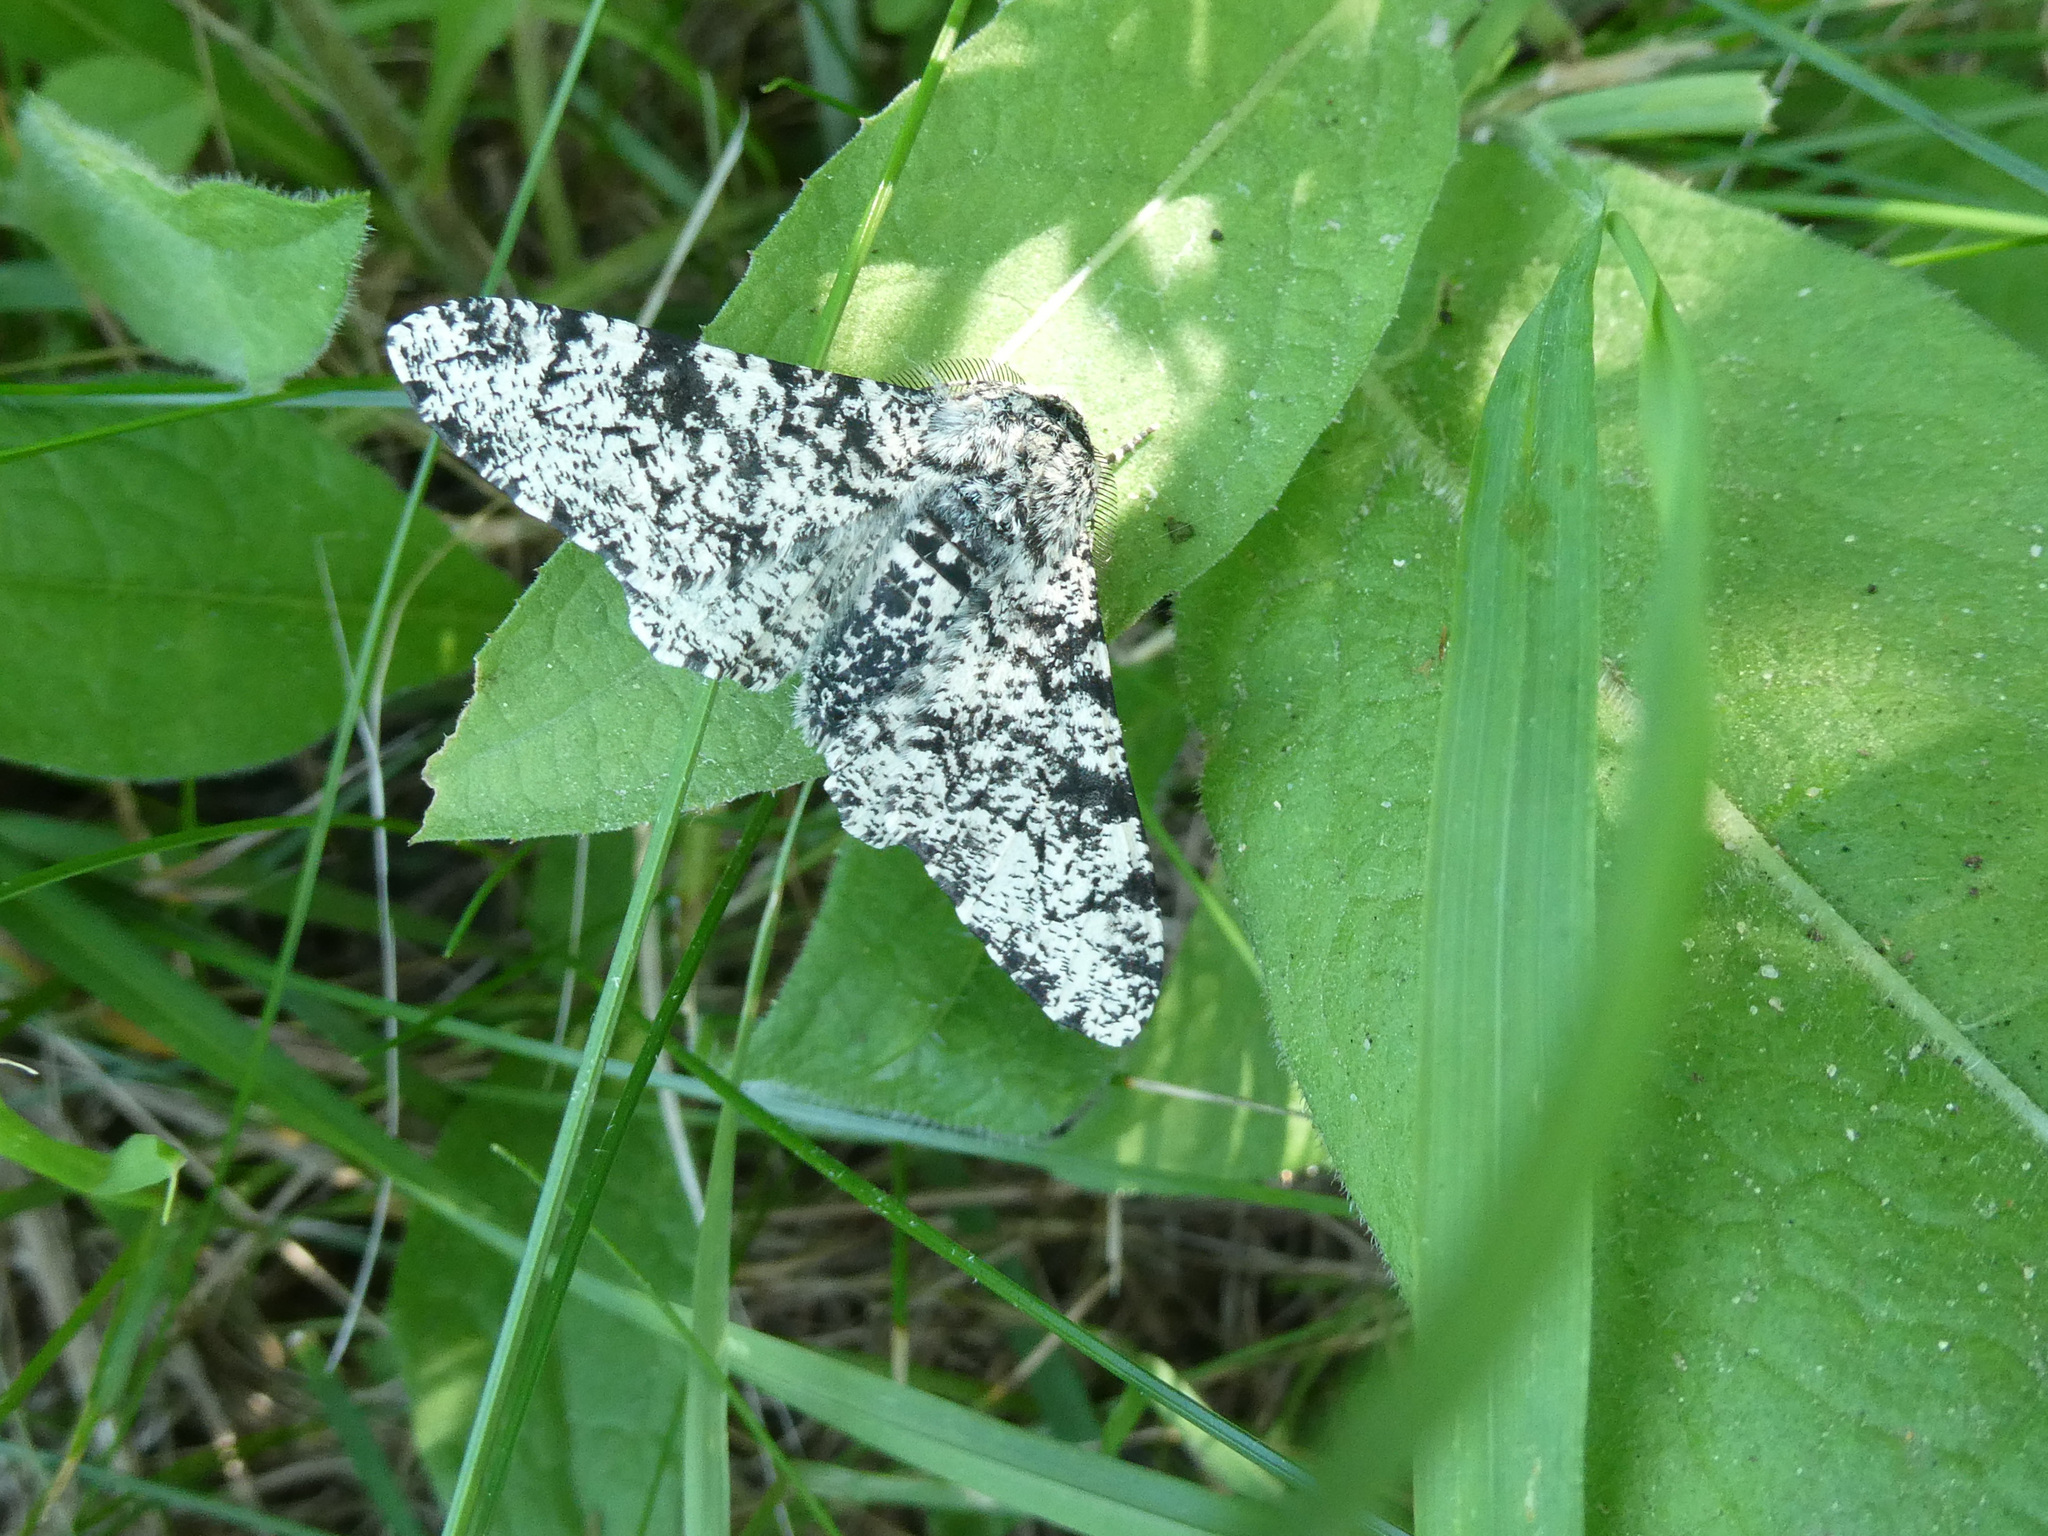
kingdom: Animalia
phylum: Arthropoda
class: Insecta
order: Lepidoptera
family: Geometridae
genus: Biston
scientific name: Biston betularia
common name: Peppered moth
